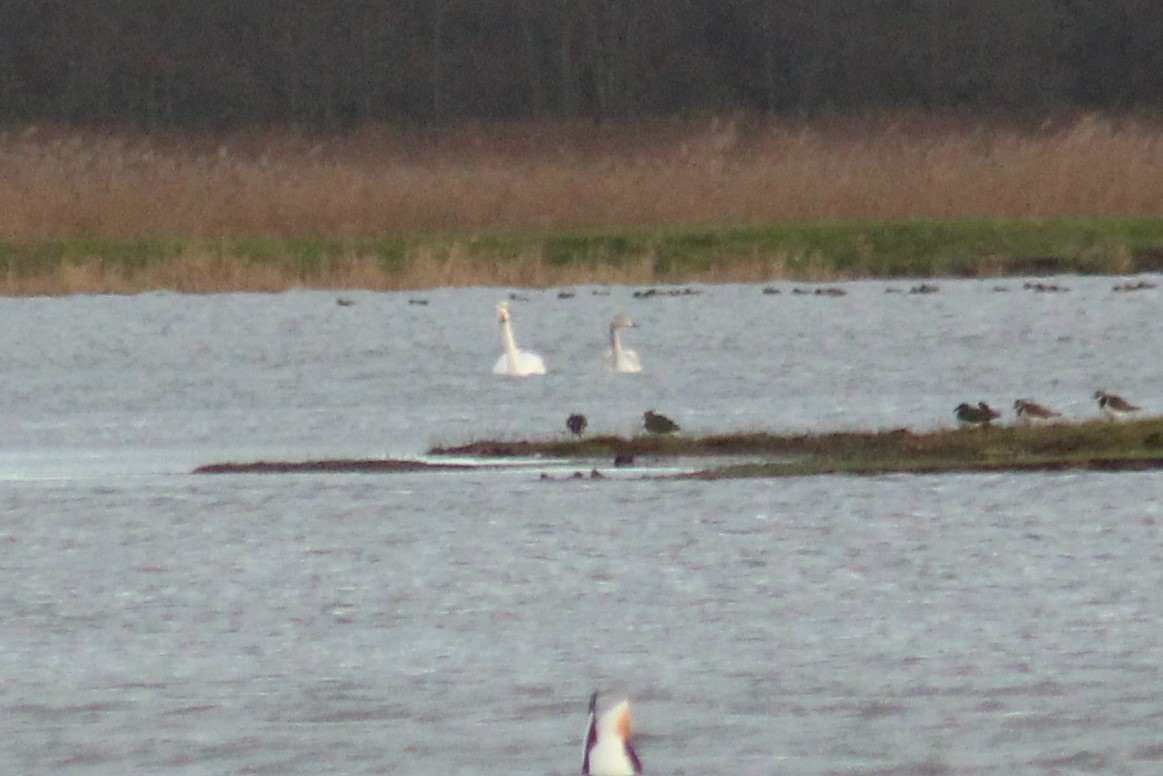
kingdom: Animalia
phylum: Chordata
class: Aves
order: Anseriformes
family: Anatidae
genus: Cygnus
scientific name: Cygnus cygnus
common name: Whooper swan
